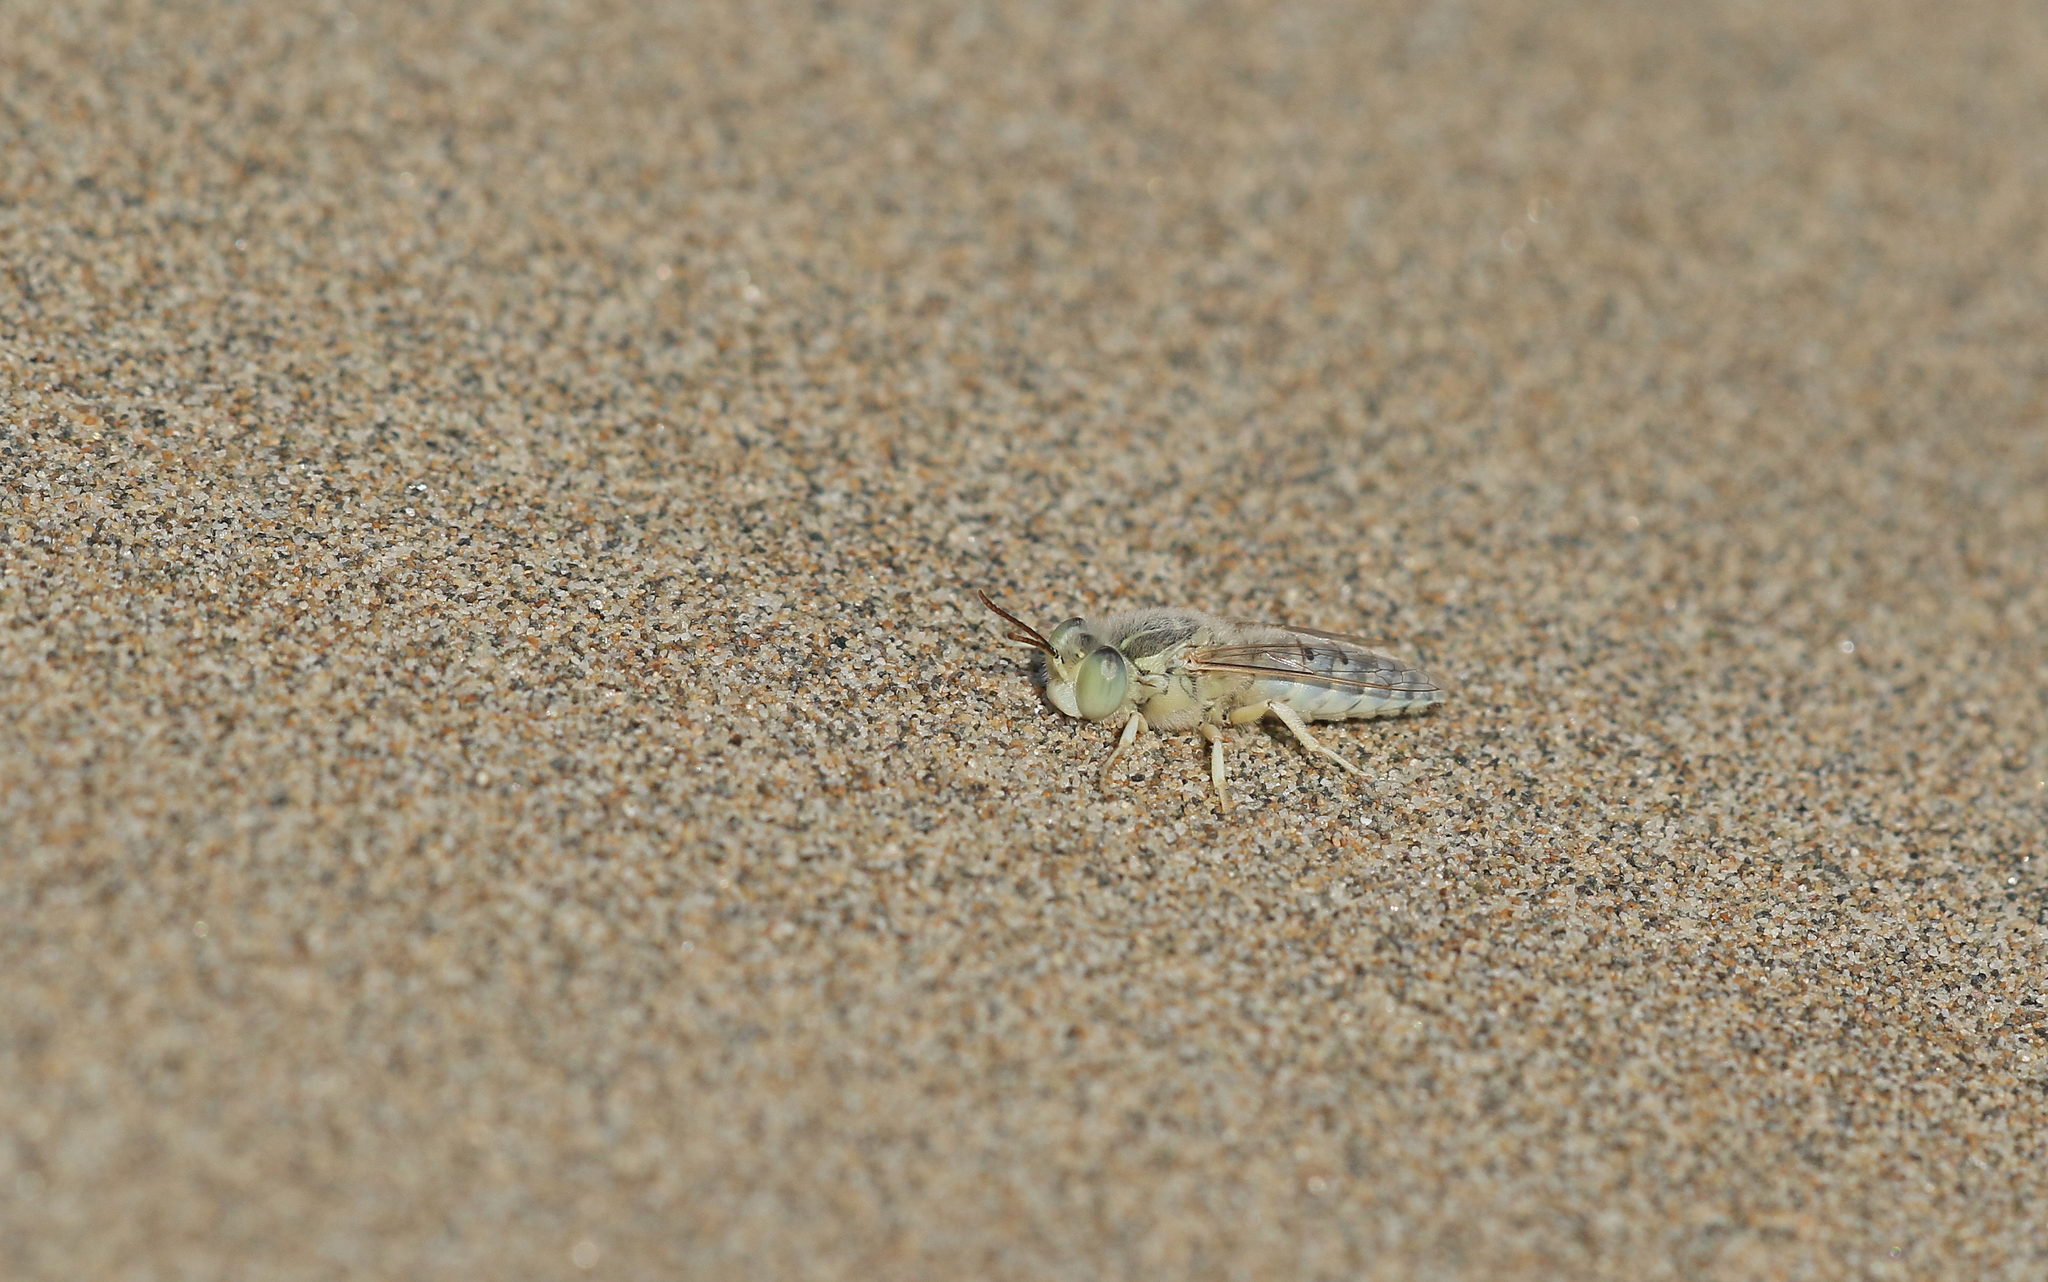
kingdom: Animalia
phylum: Arthropoda
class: Insecta
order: Hymenoptera
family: Crabronidae
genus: Bembix
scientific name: Bembix olivacea
